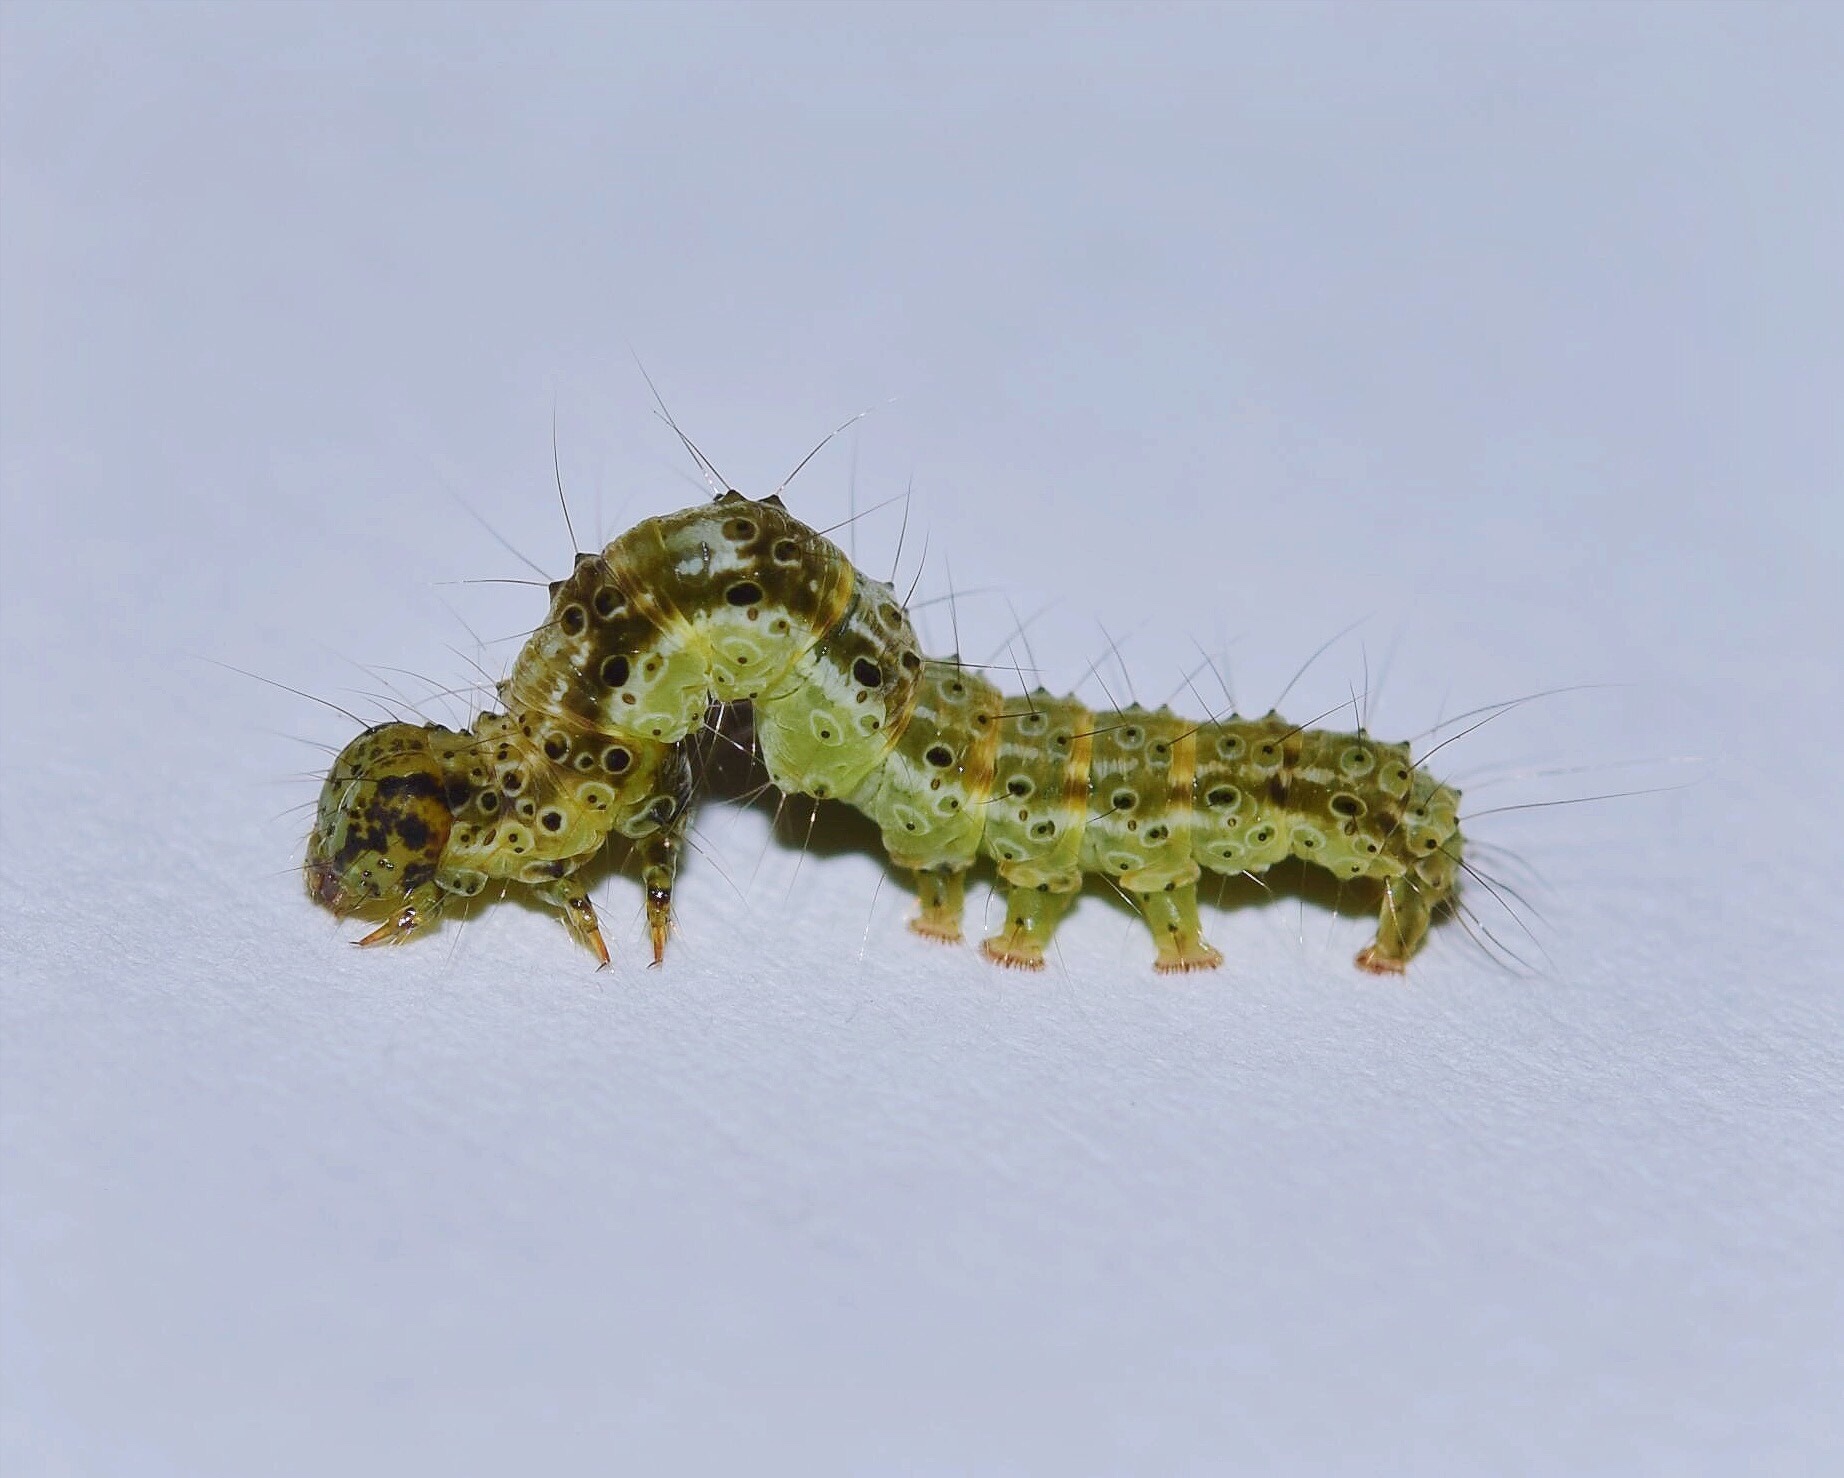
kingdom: Animalia
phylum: Arthropoda
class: Insecta
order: Lepidoptera
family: Erebidae
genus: Hypena
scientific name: Hypena
